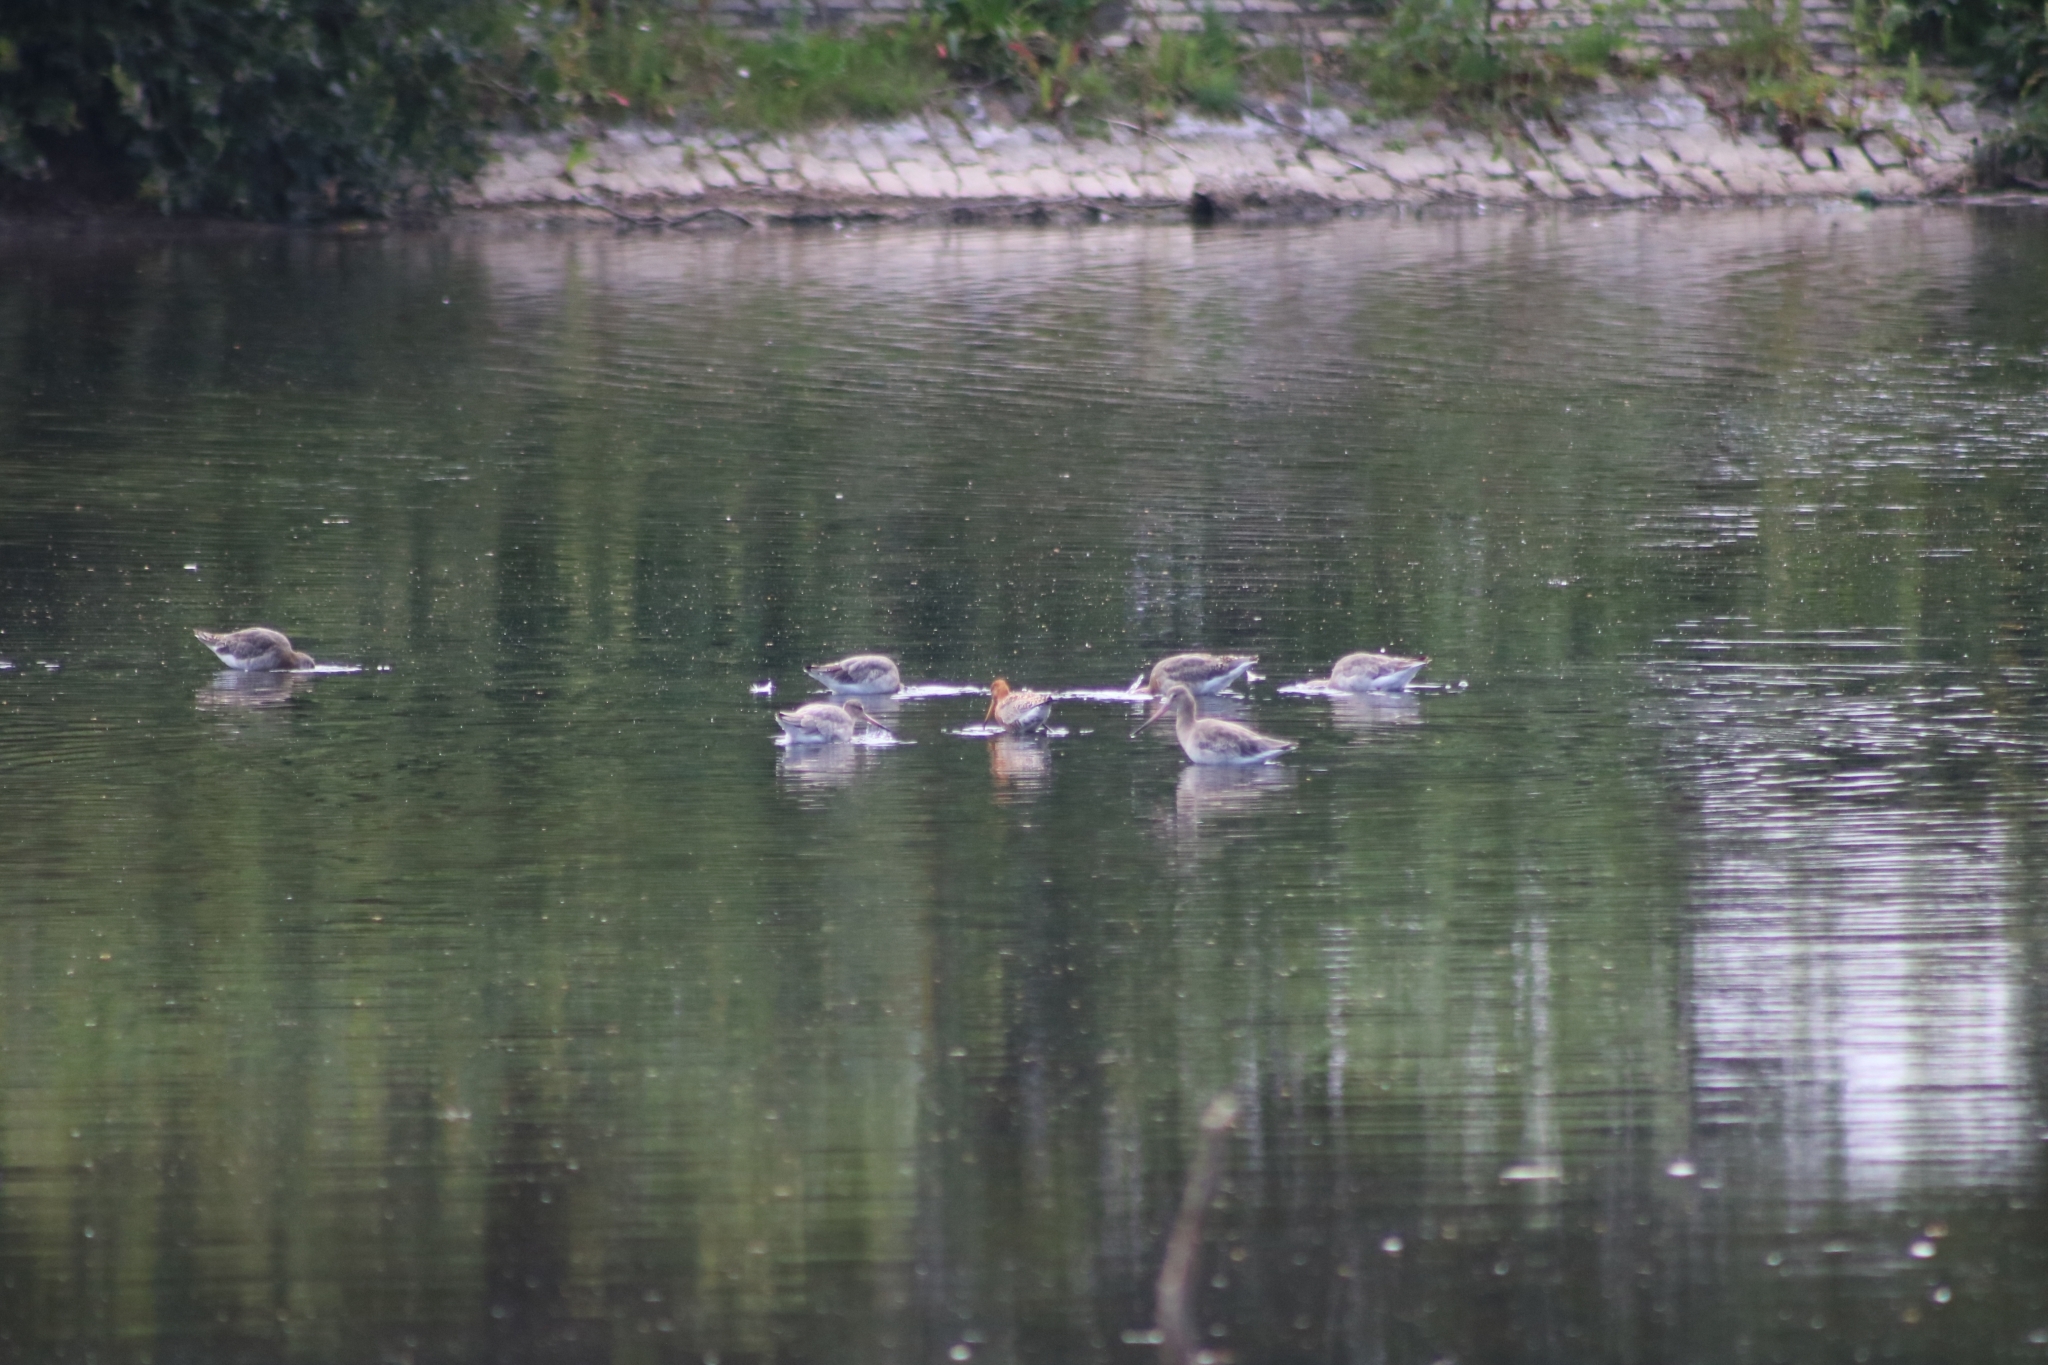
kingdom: Animalia
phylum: Chordata
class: Aves
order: Charadriiformes
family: Scolopacidae
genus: Limosa
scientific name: Limosa limosa
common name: Black-tailed godwit
